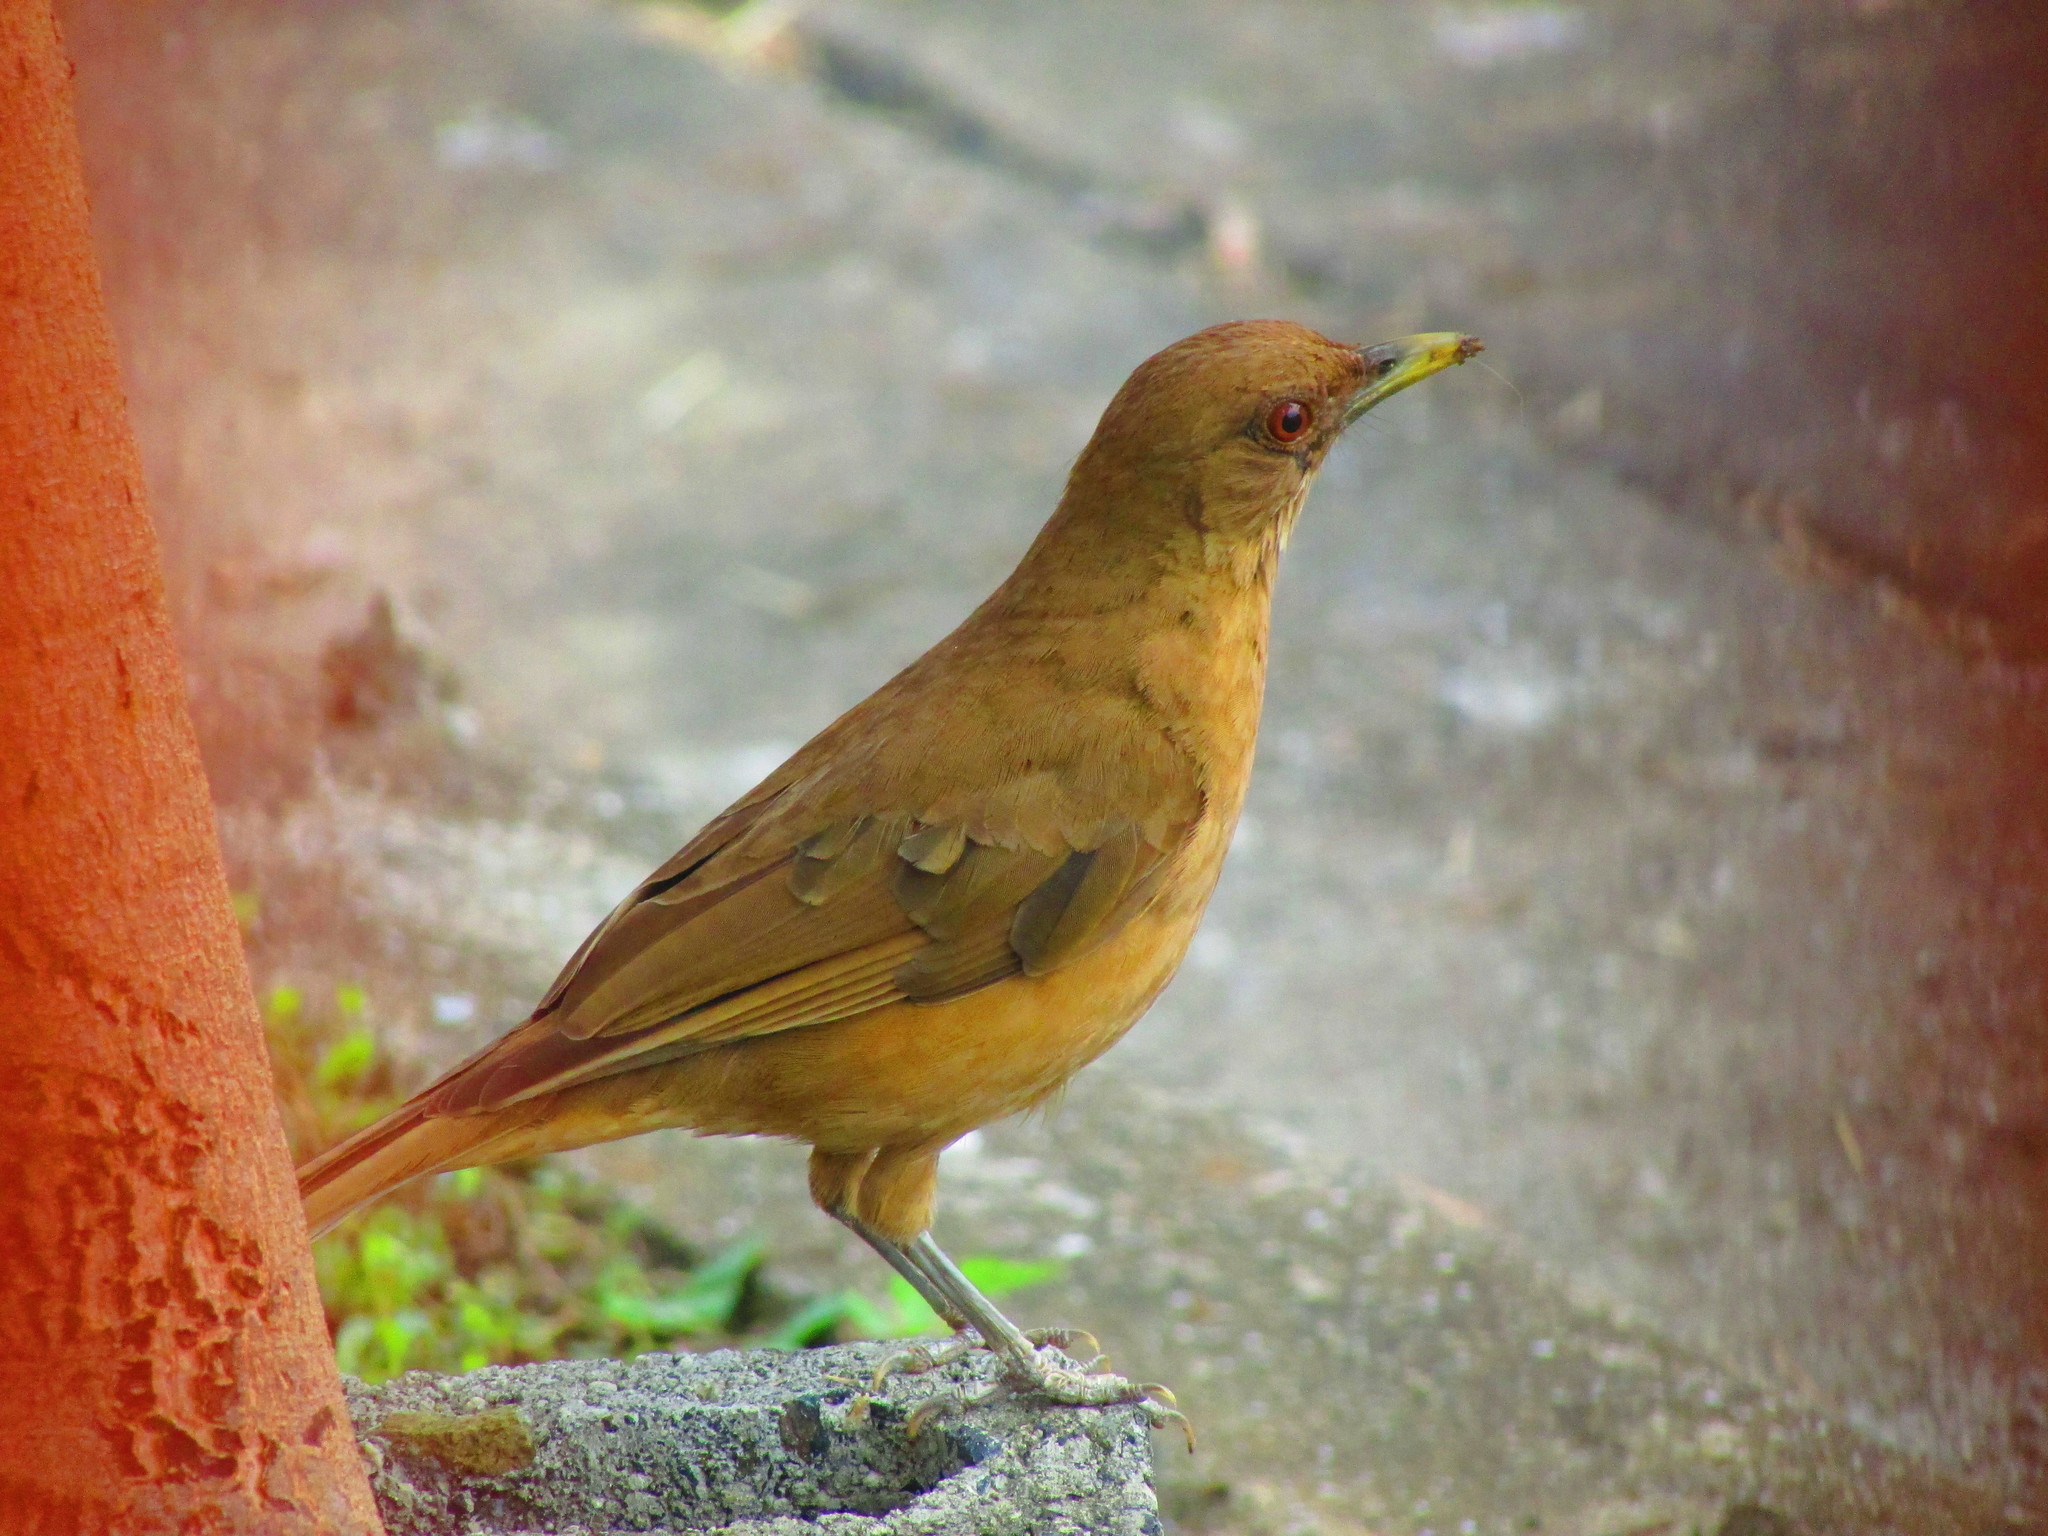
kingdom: Animalia
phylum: Chordata
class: Aves
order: Passeriformes
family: Turdidae
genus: Turdus
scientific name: Turdus grayi
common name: Clay-colored thrush
